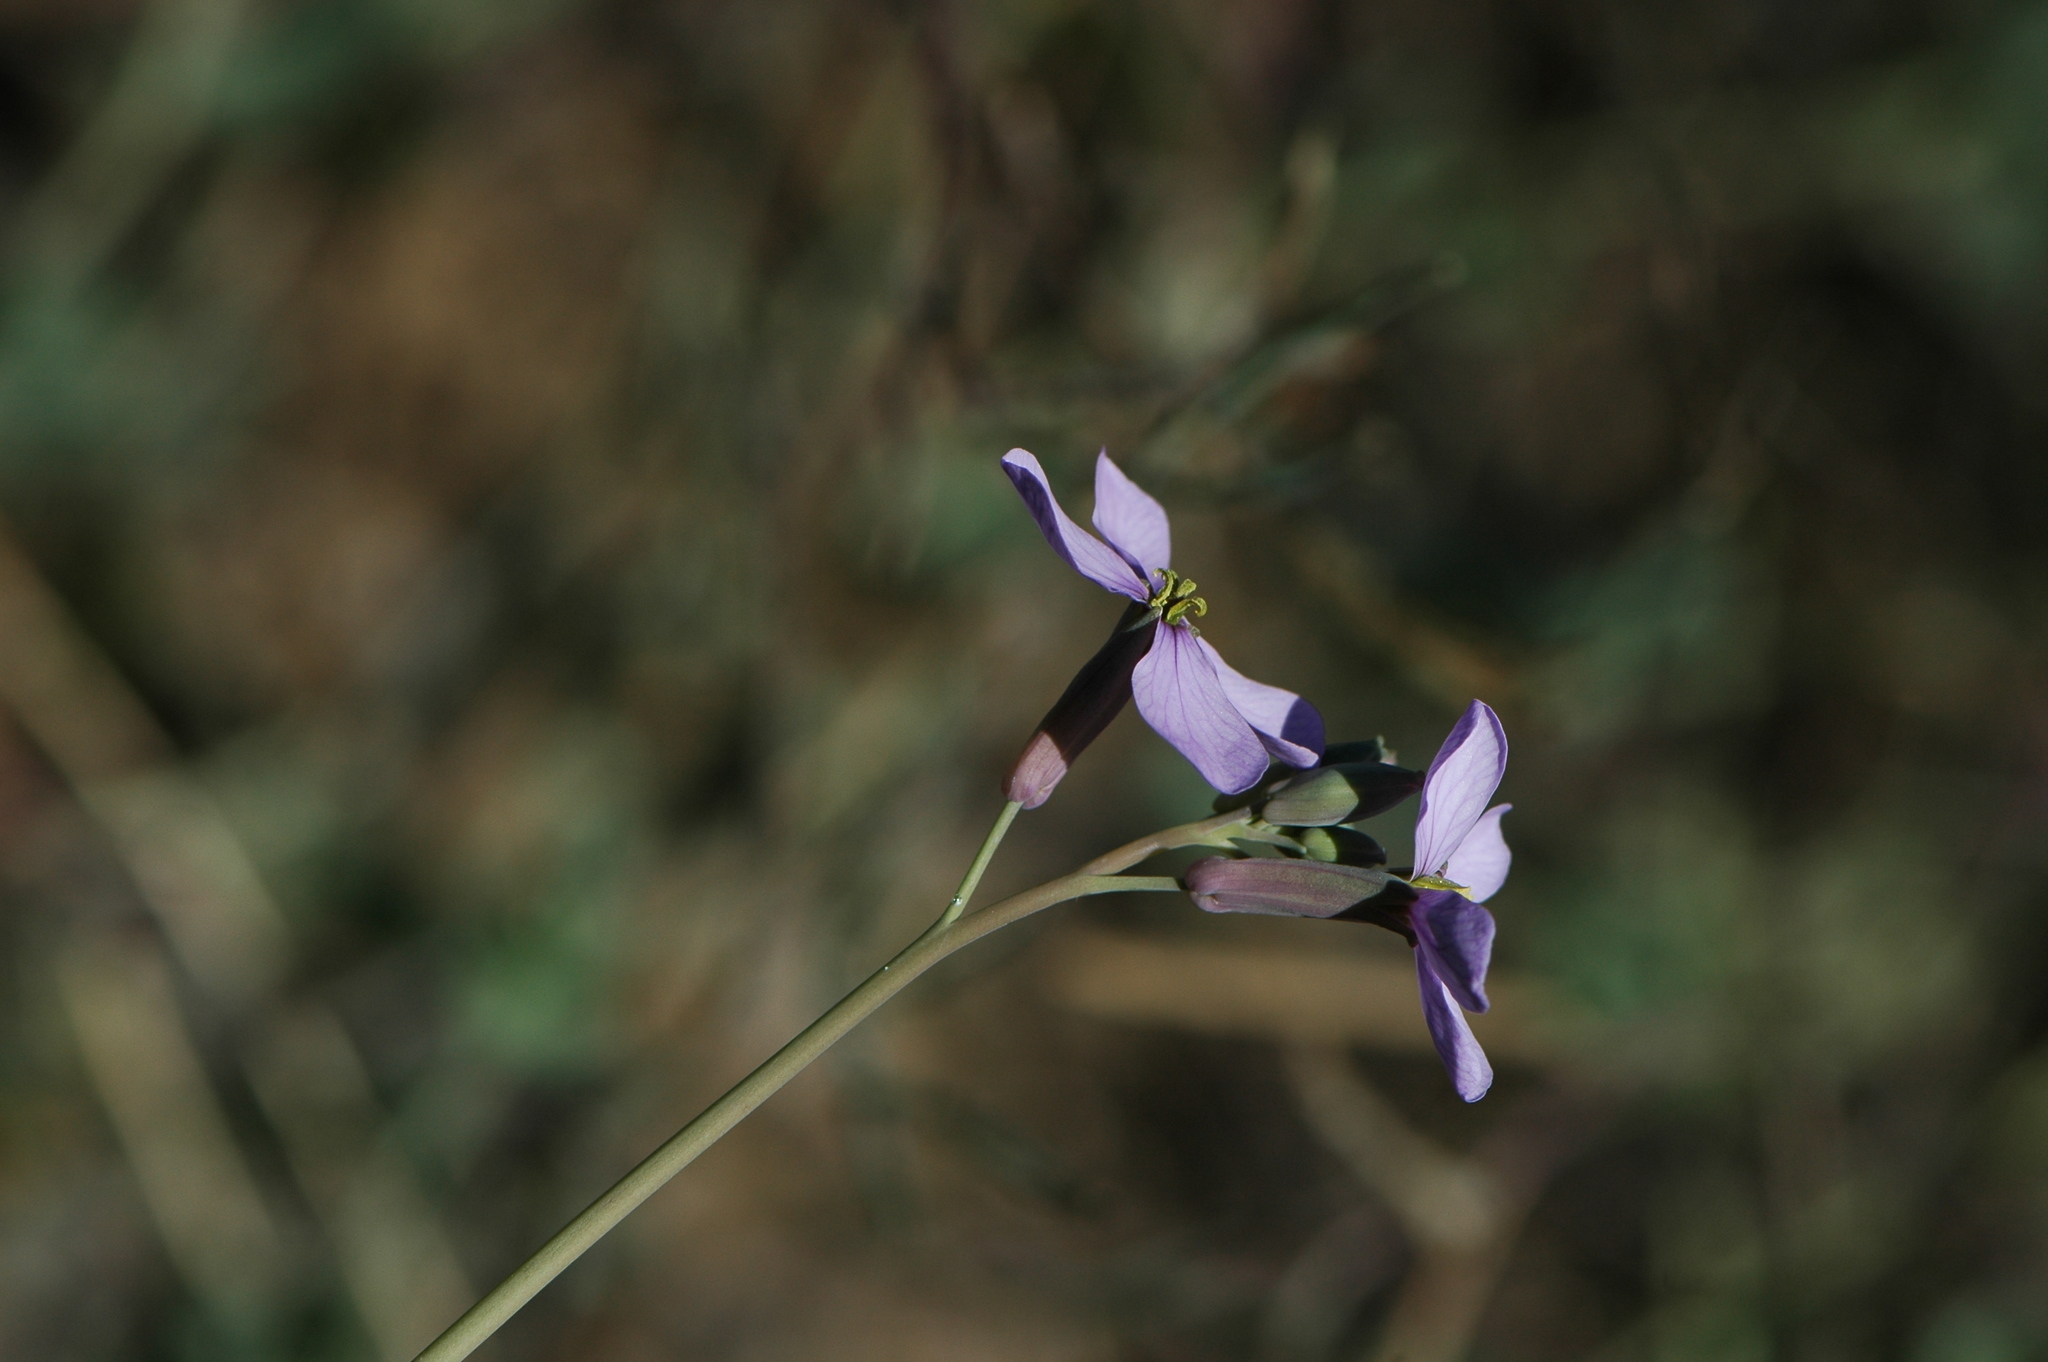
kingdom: Plantae
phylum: Tracheophyta
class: Magnoliopsida
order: Brassicales
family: Brassicaceae
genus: Moricandia
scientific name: Moricandia arvensis
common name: Purple mistress
